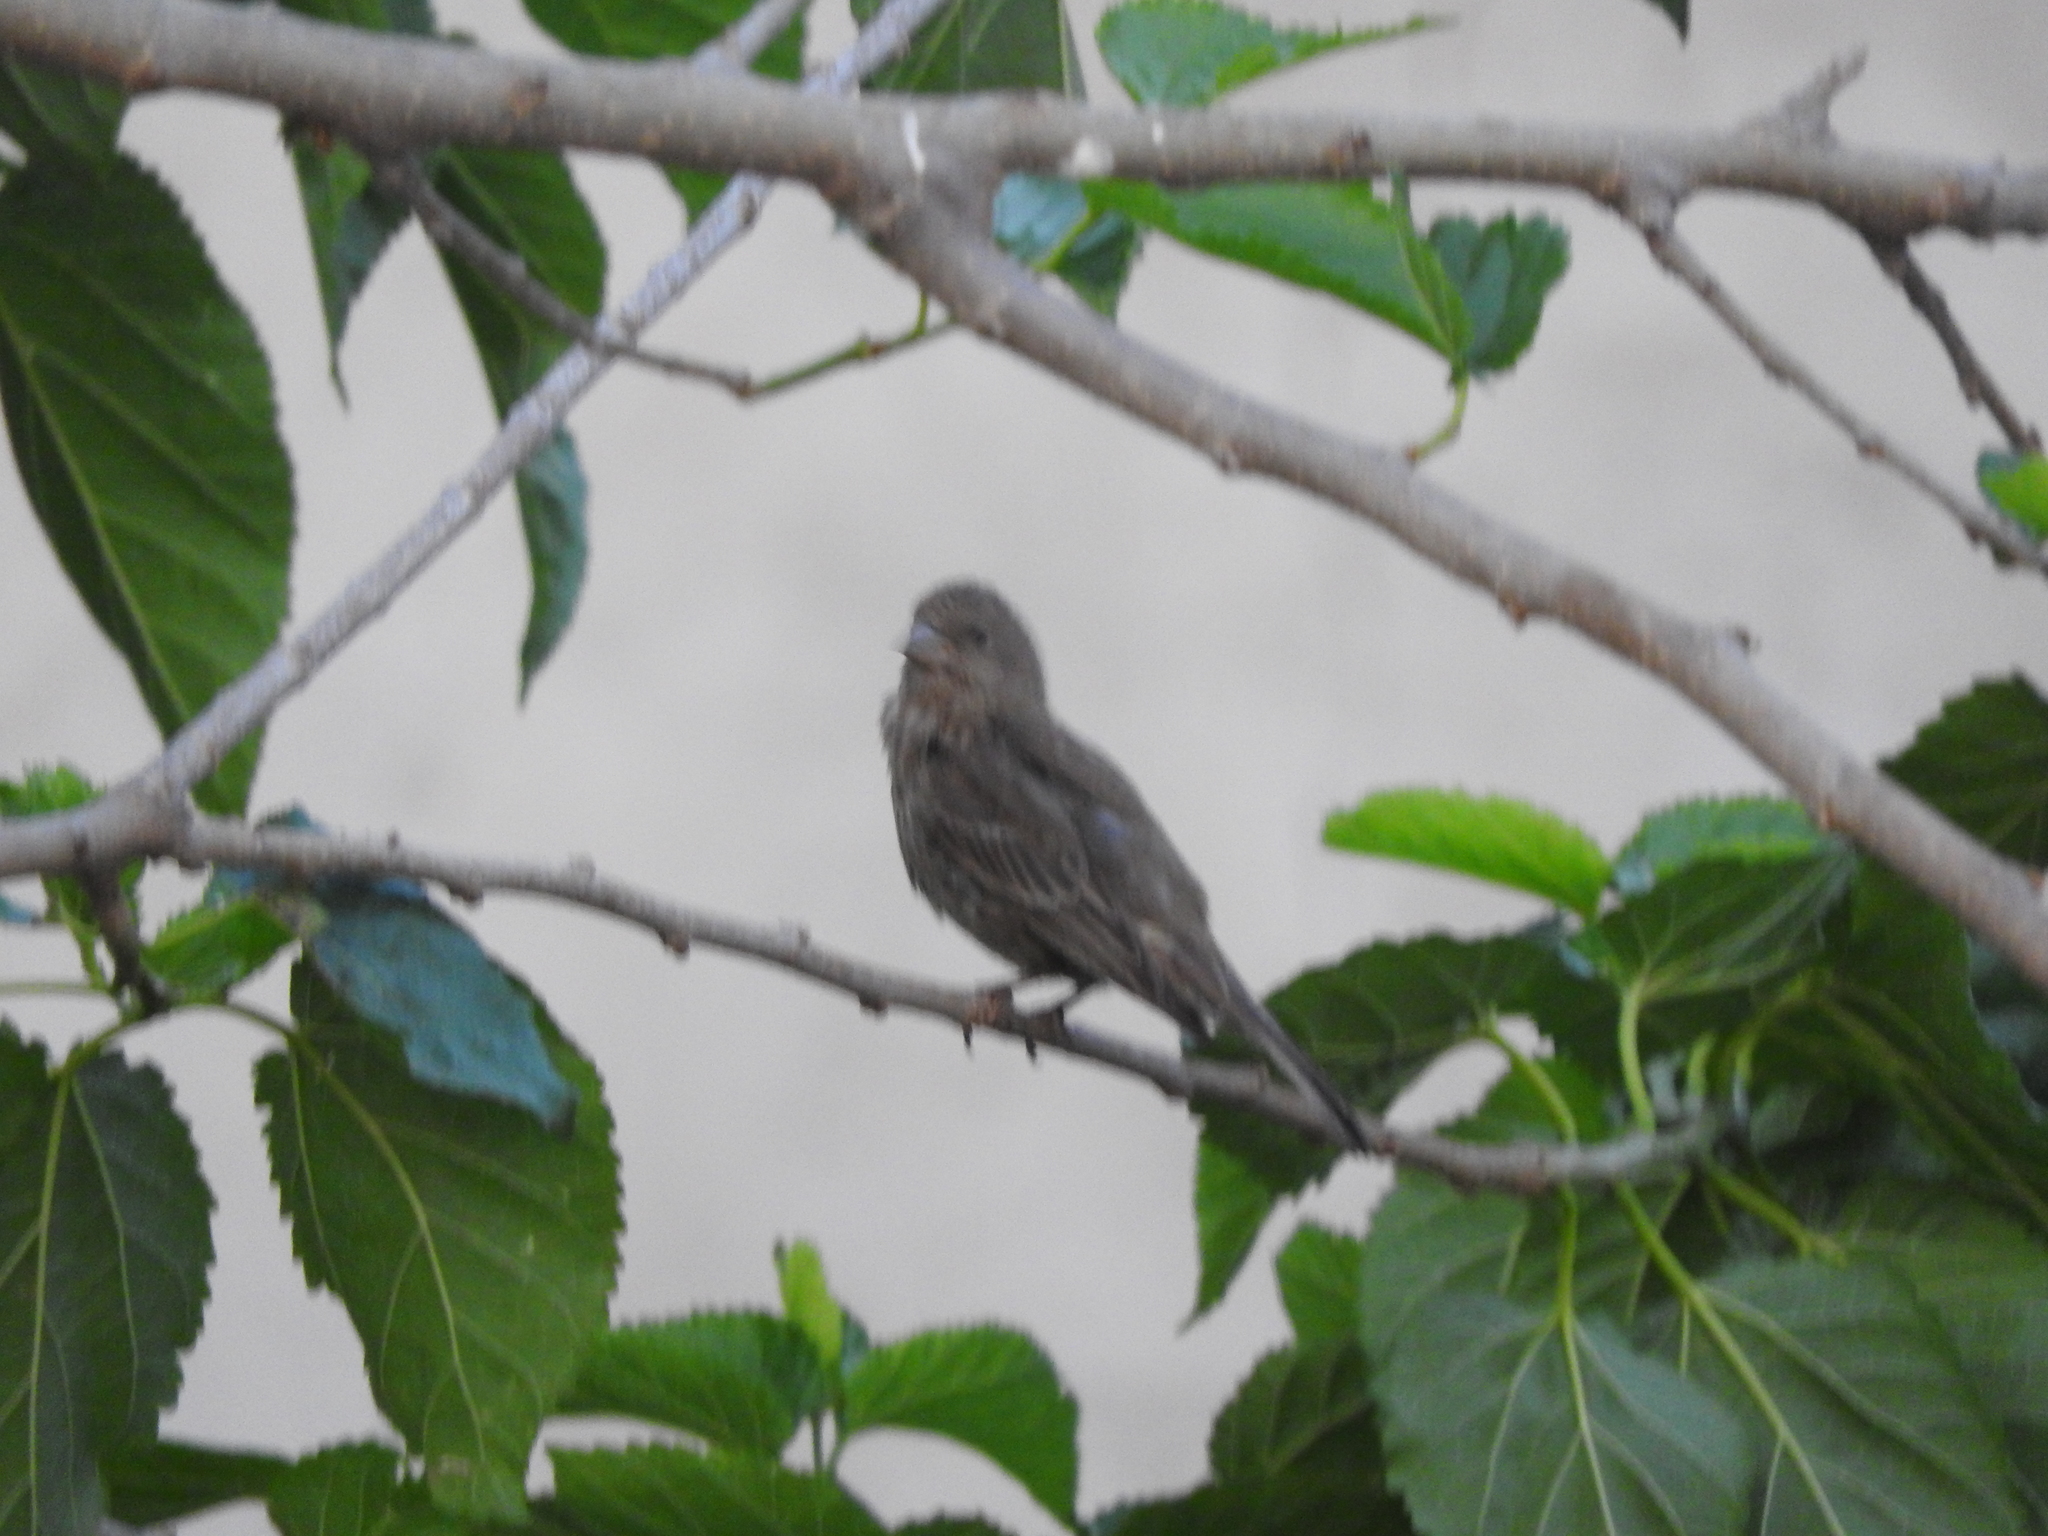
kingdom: Animalia
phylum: Chordata
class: Aves
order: Passeriformes
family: Fringillidae
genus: Haemorhous
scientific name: Haemorhous mexicanus
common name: House finch
